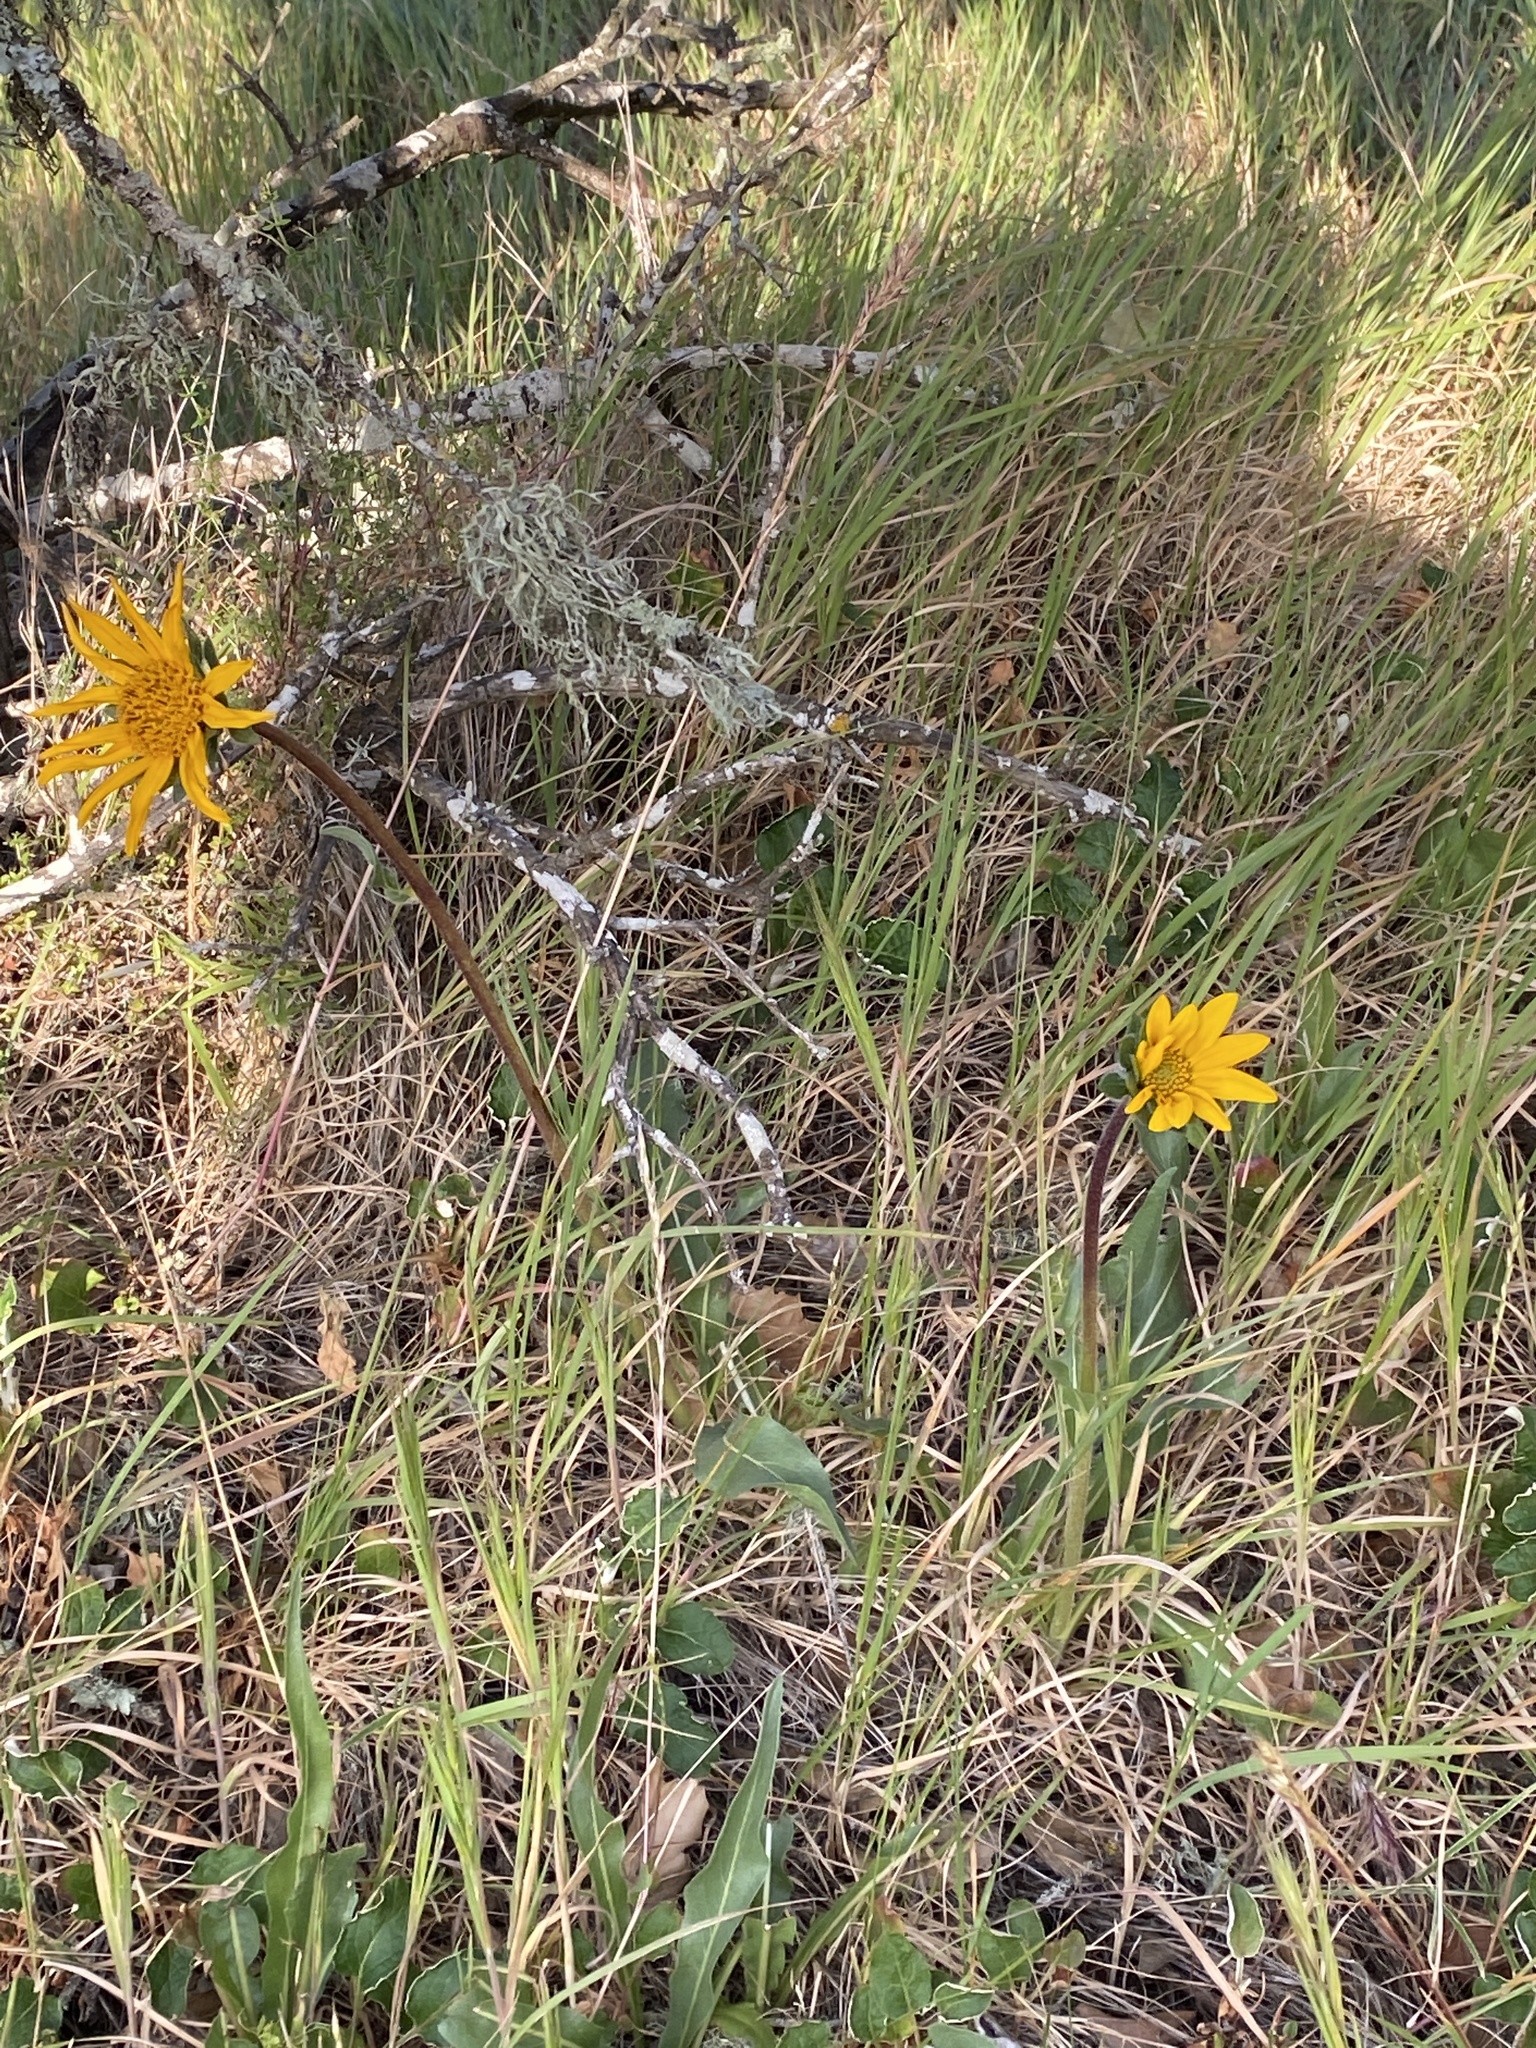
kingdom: Plantae
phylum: Tracheophyta
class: Magnoliopsida
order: Asterales
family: Asteraceae
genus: Wyethia
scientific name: Wyethia angustifolia
